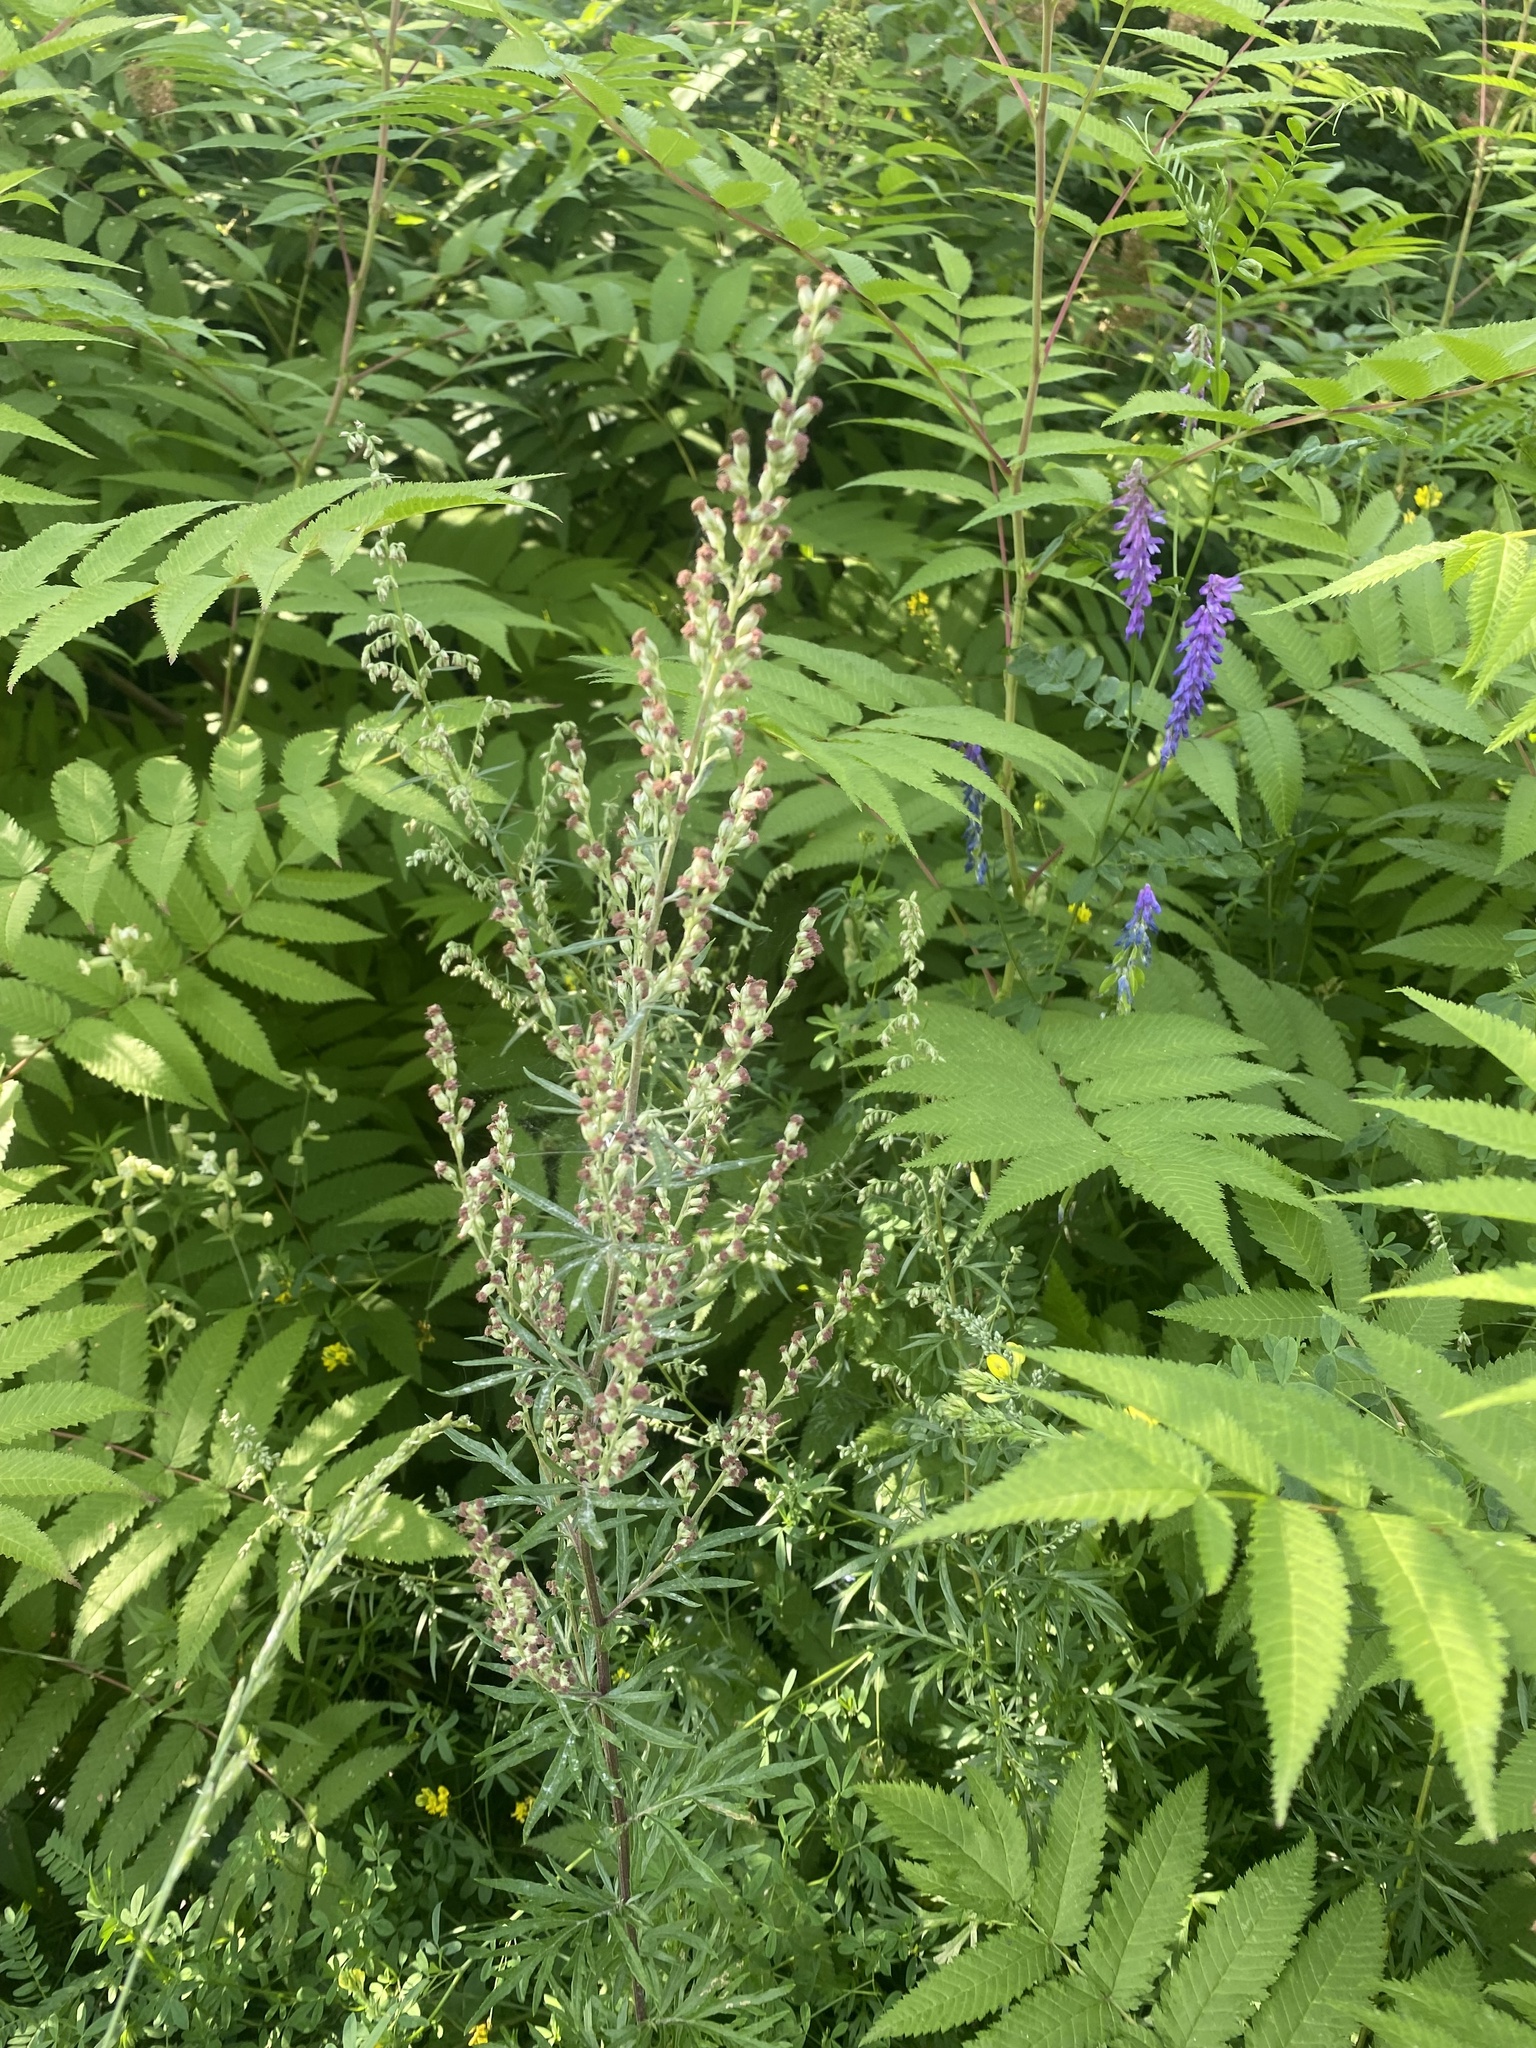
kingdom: Plantae
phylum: Tracheophyta
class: Magnoliopsida
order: Asterales
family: Asteraceae
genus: Artemisia
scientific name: Artemisia vulgaris
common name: Mugwort
